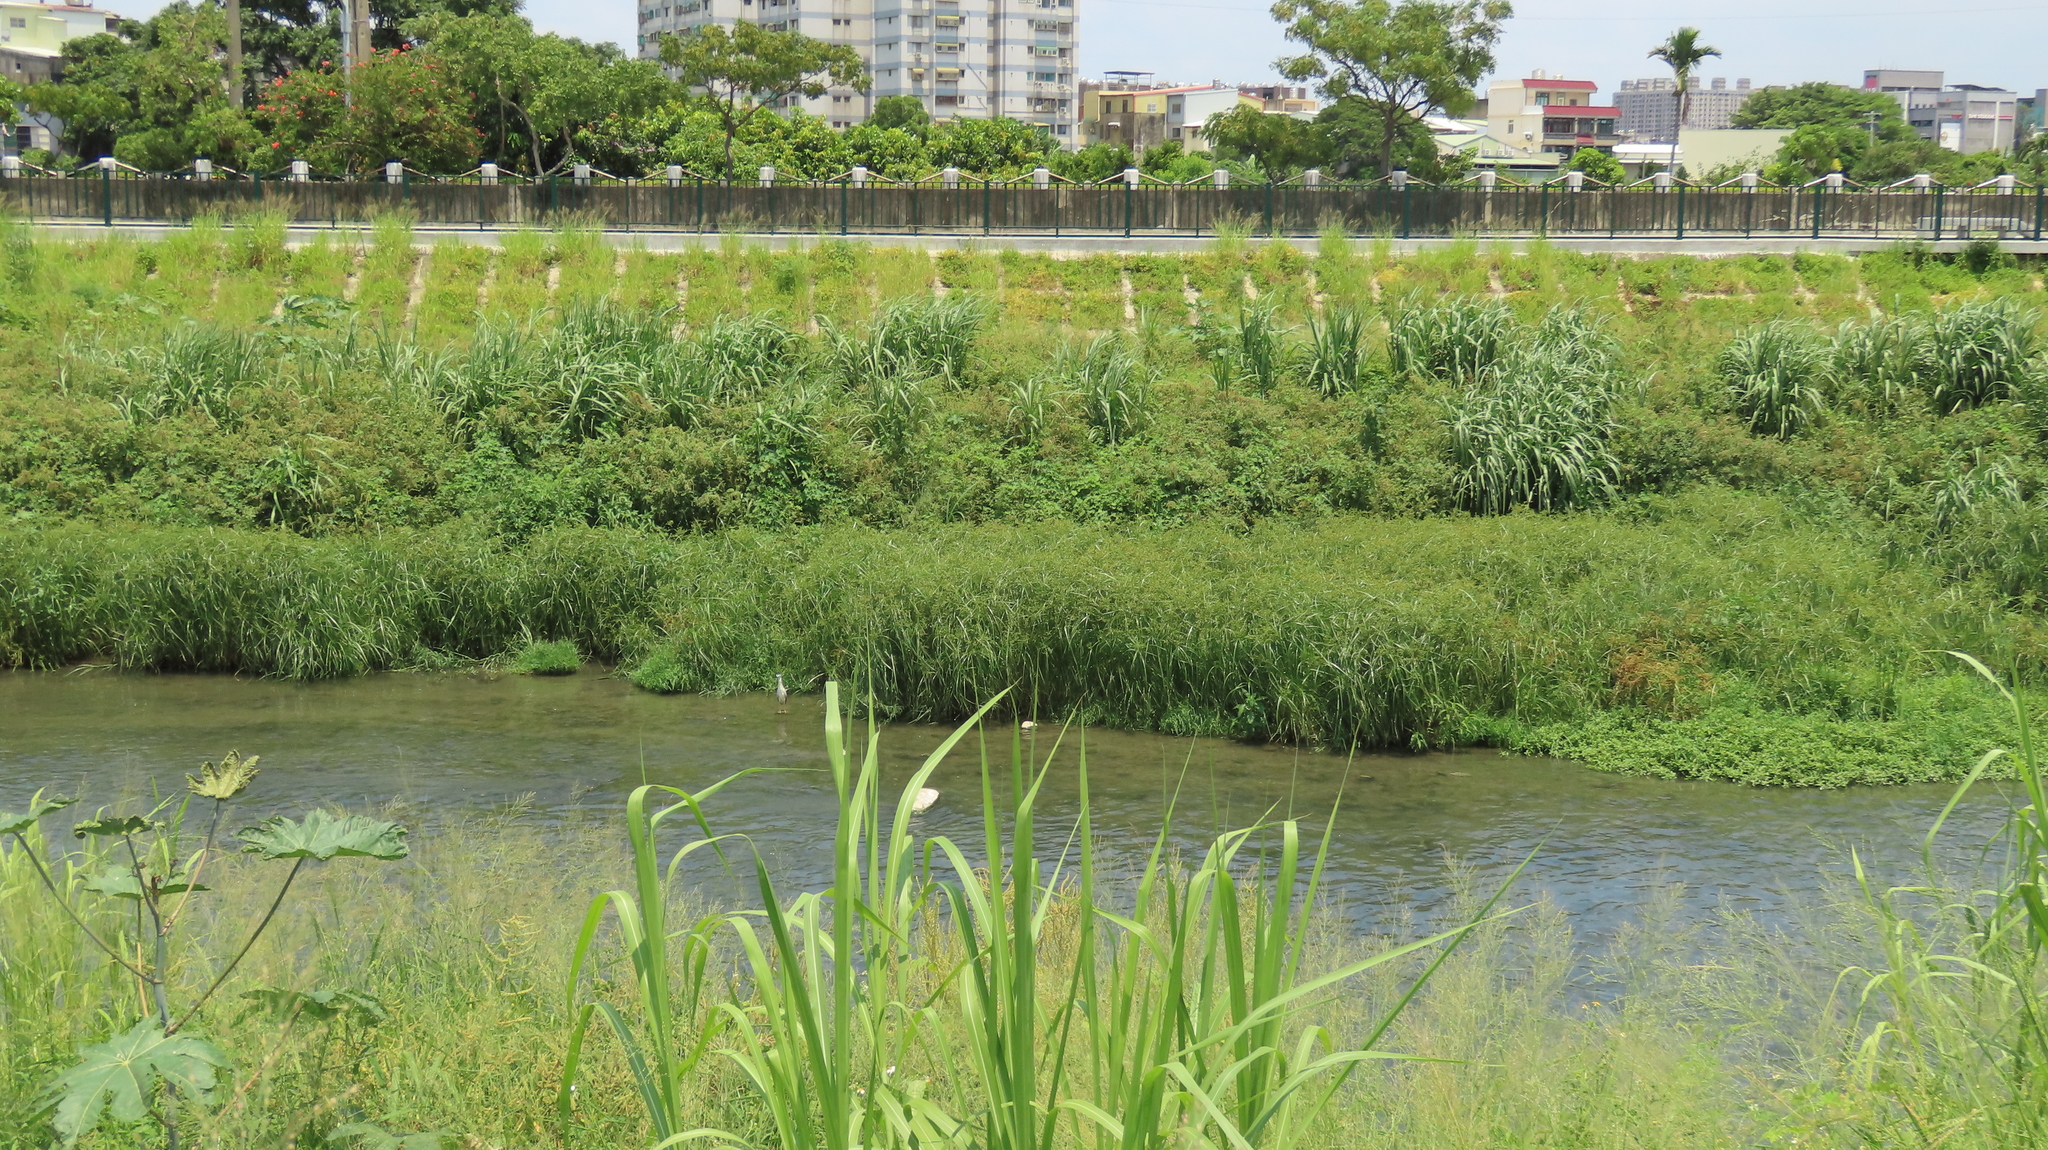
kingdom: Plantae
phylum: Tracheophyta
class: Liliopsida
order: Poales
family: Cyperaceae
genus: Cyperus
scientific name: Cyperus imbricatus
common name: Shingle flatsedge
